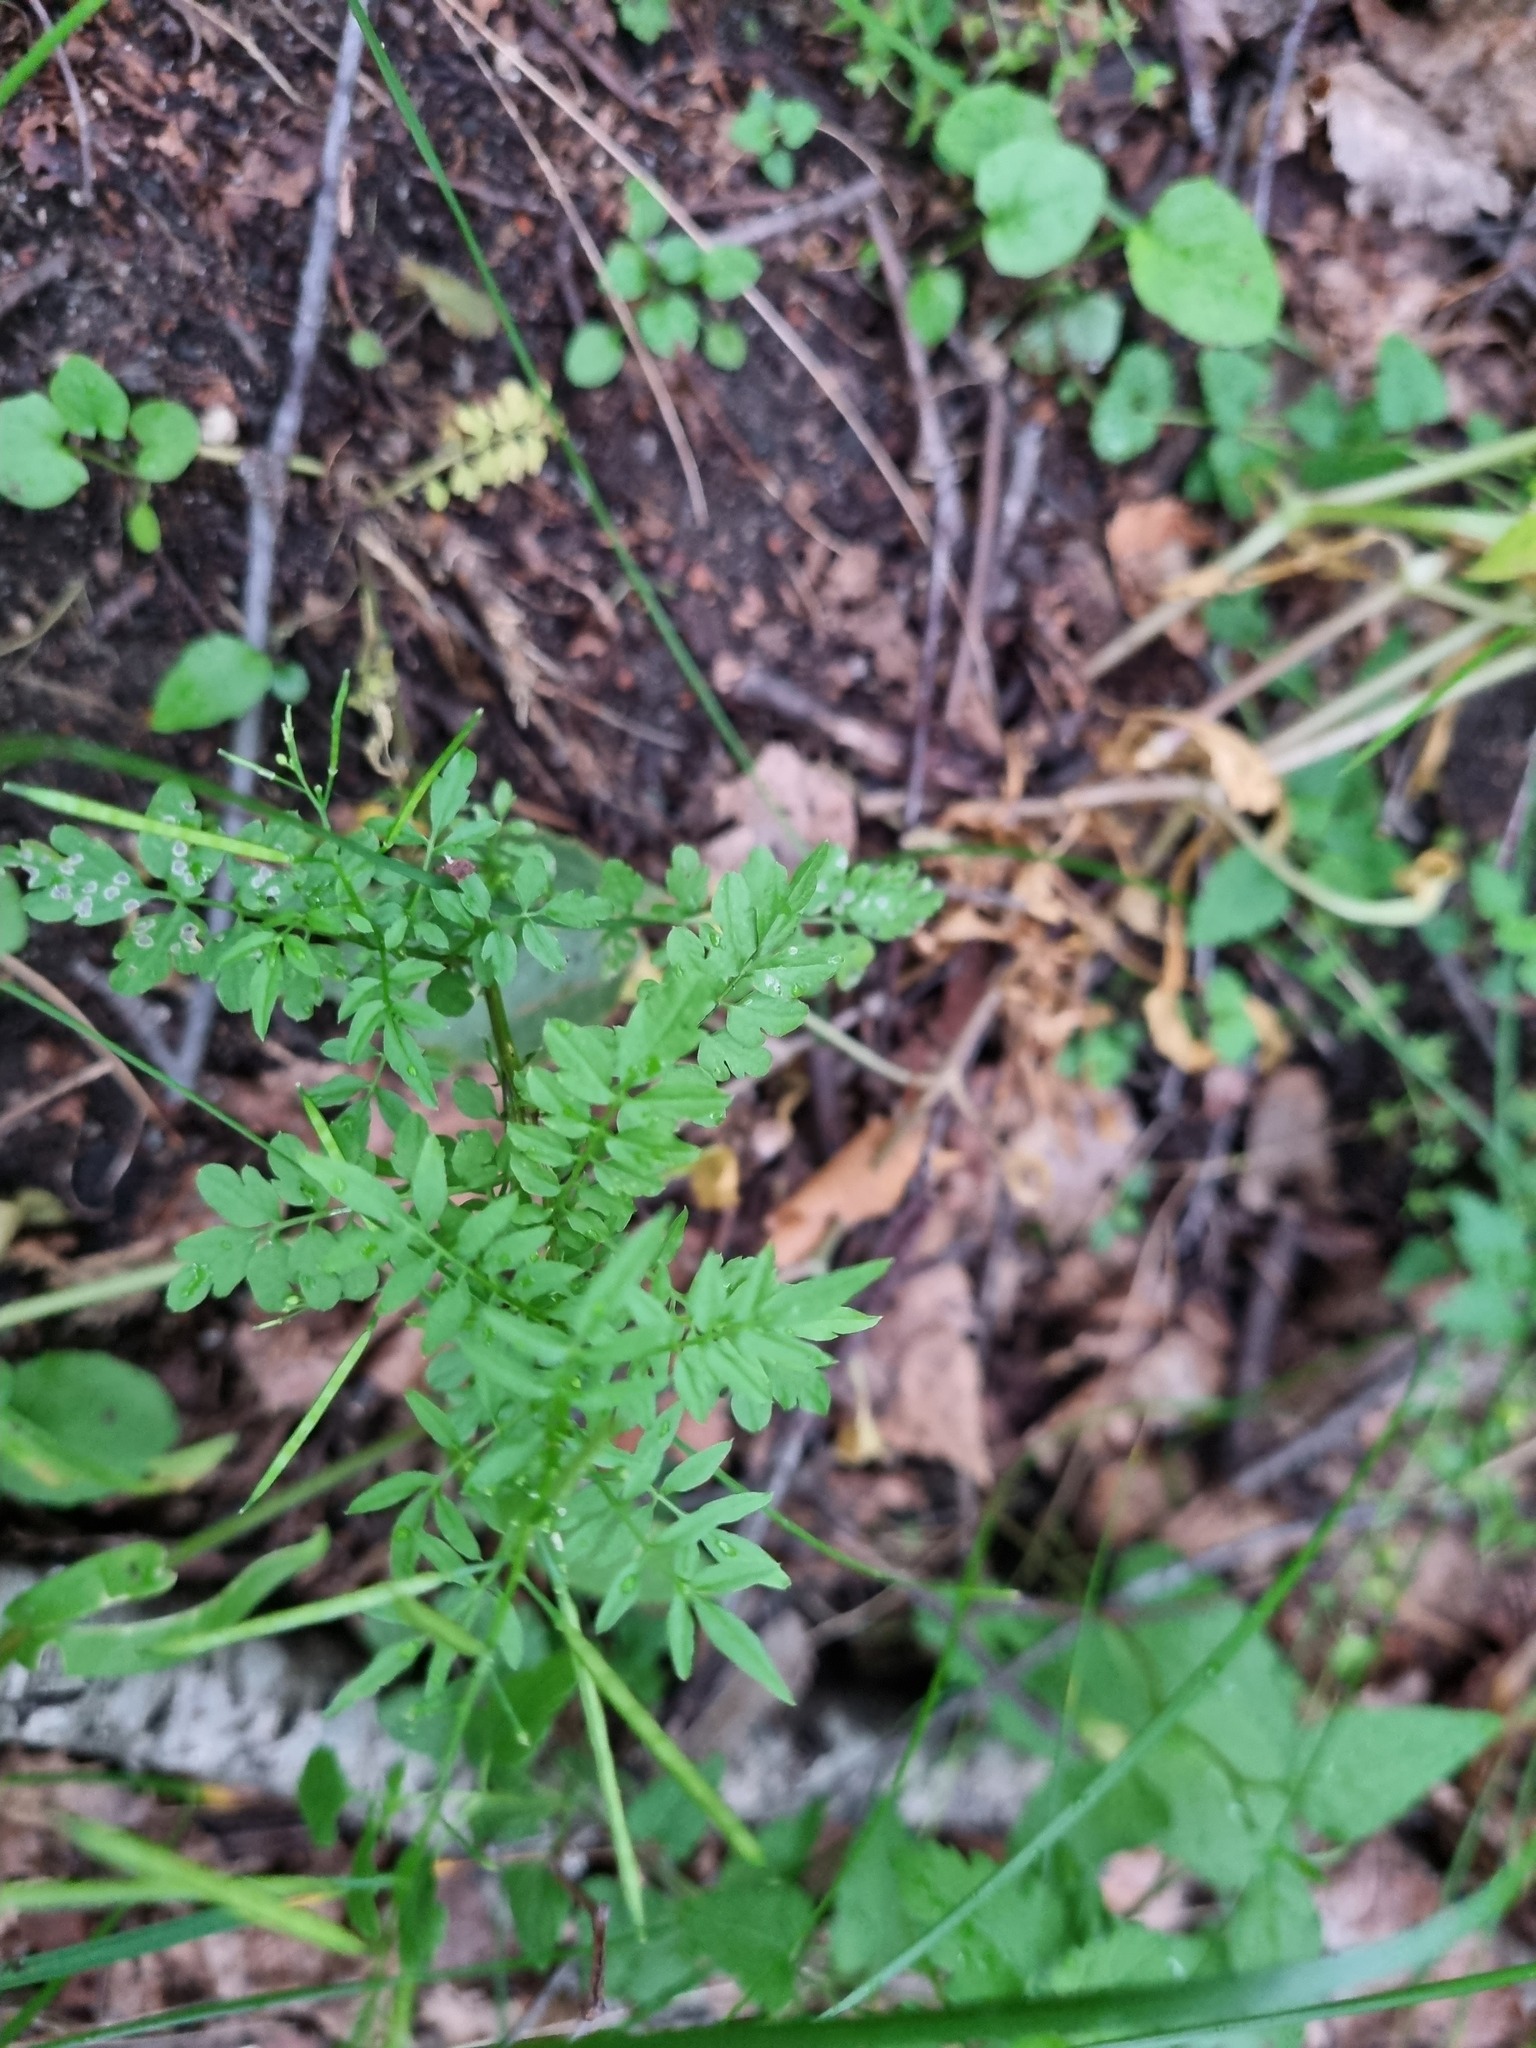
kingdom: Plantae
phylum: Tracheophyta
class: Magnoliopsida
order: Brassicales
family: Brassicaceae
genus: Cardamine
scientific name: Cardamine impatiens
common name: Narrow-leaved bitter-cress
